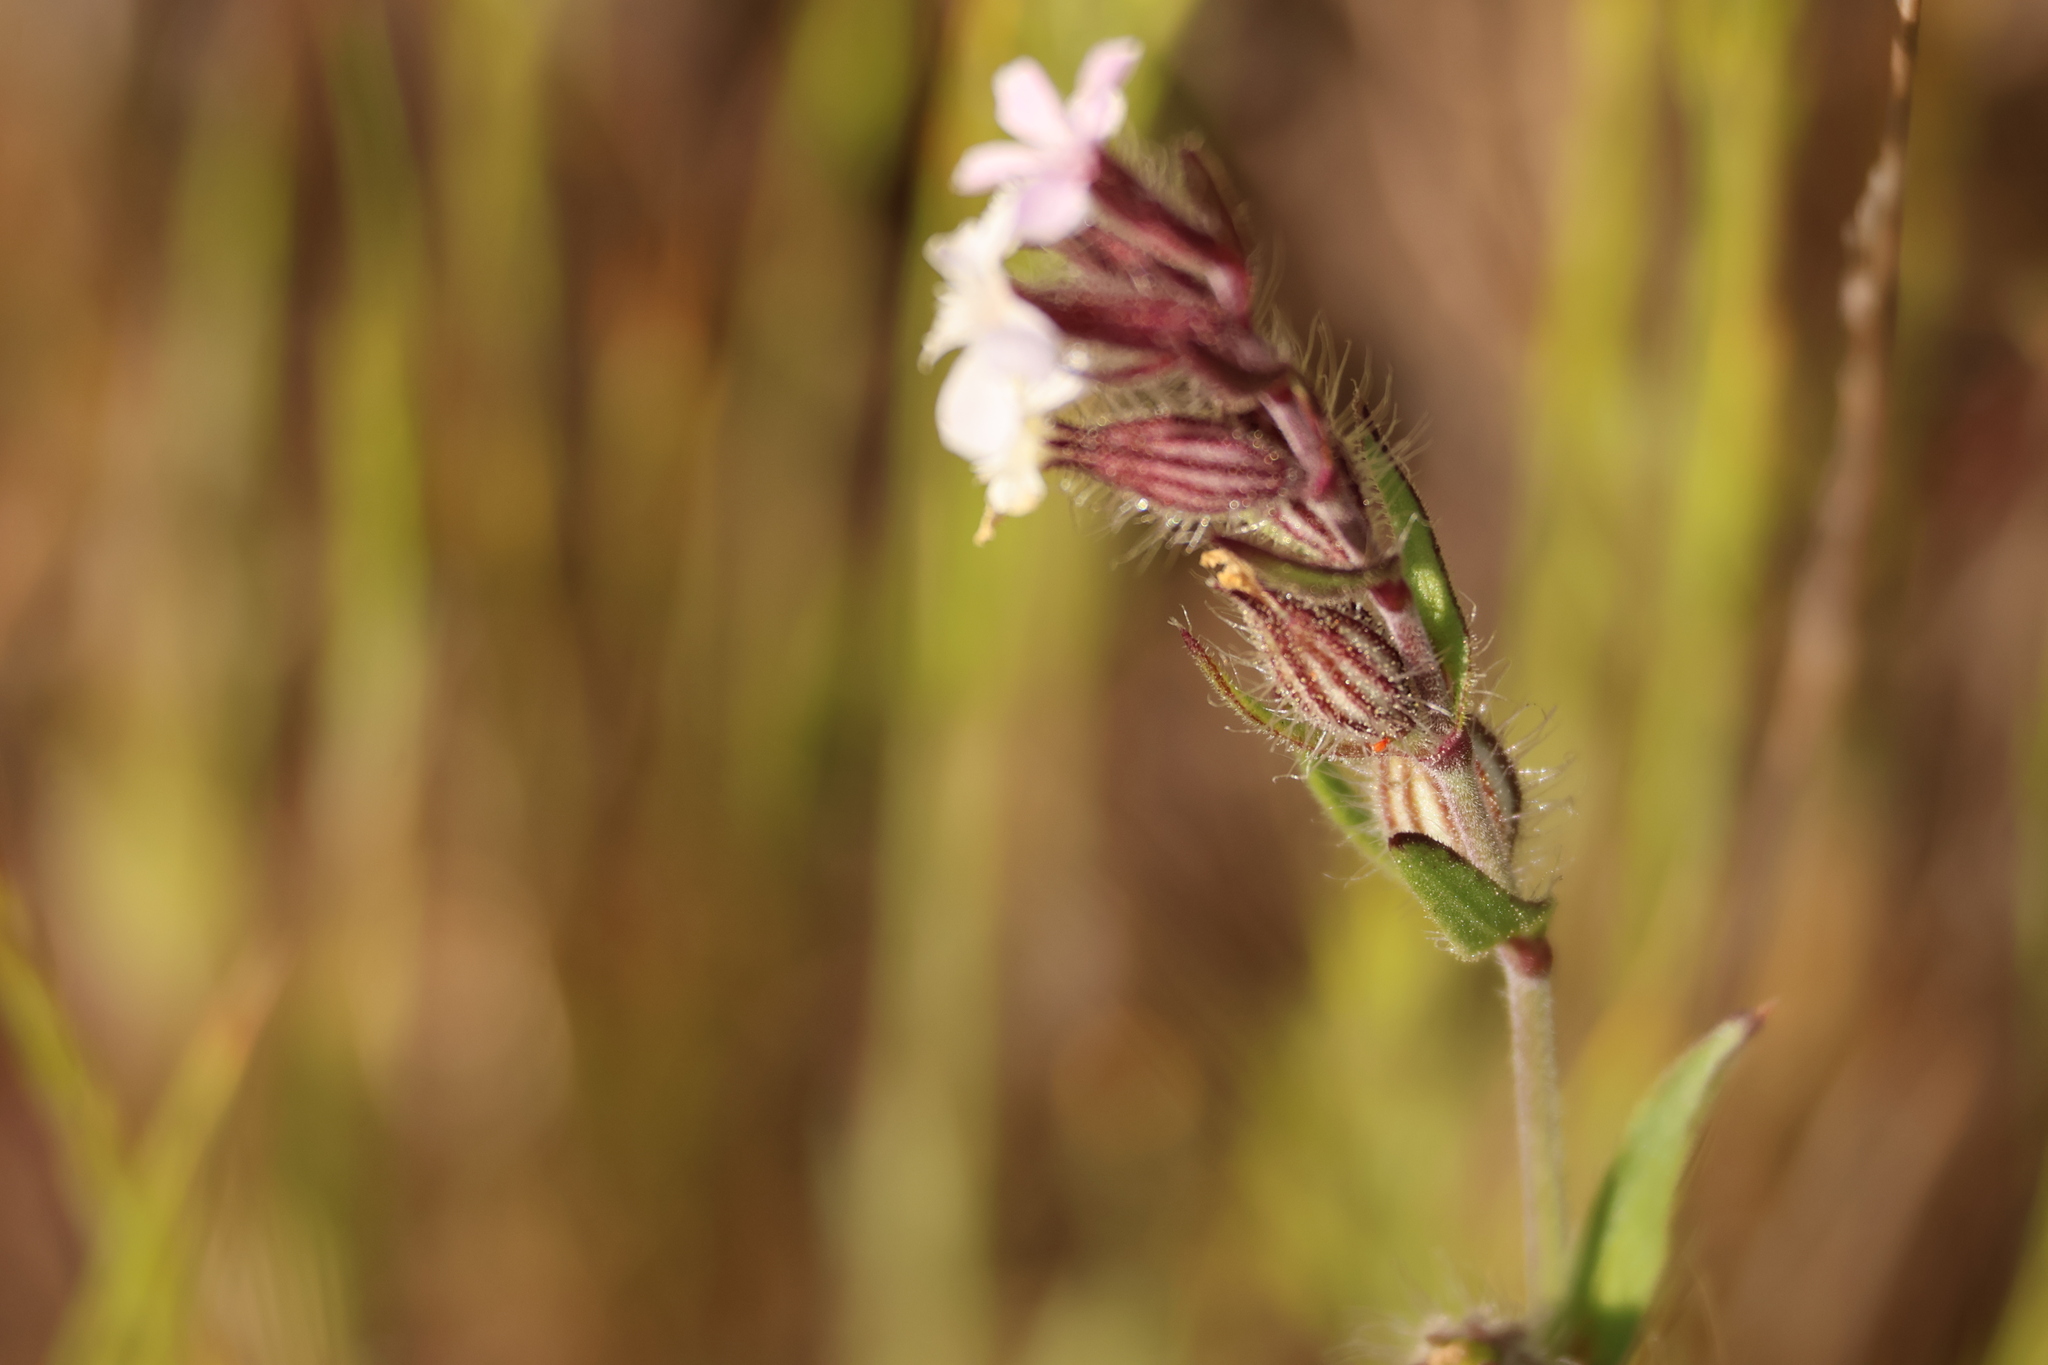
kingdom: Plantae
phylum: Tracheophyta
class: Magnoliopsida
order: Caryophyllales
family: Caryophyllaceae
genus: Silene
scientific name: Silene gallica
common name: Small-flowered catchfly
